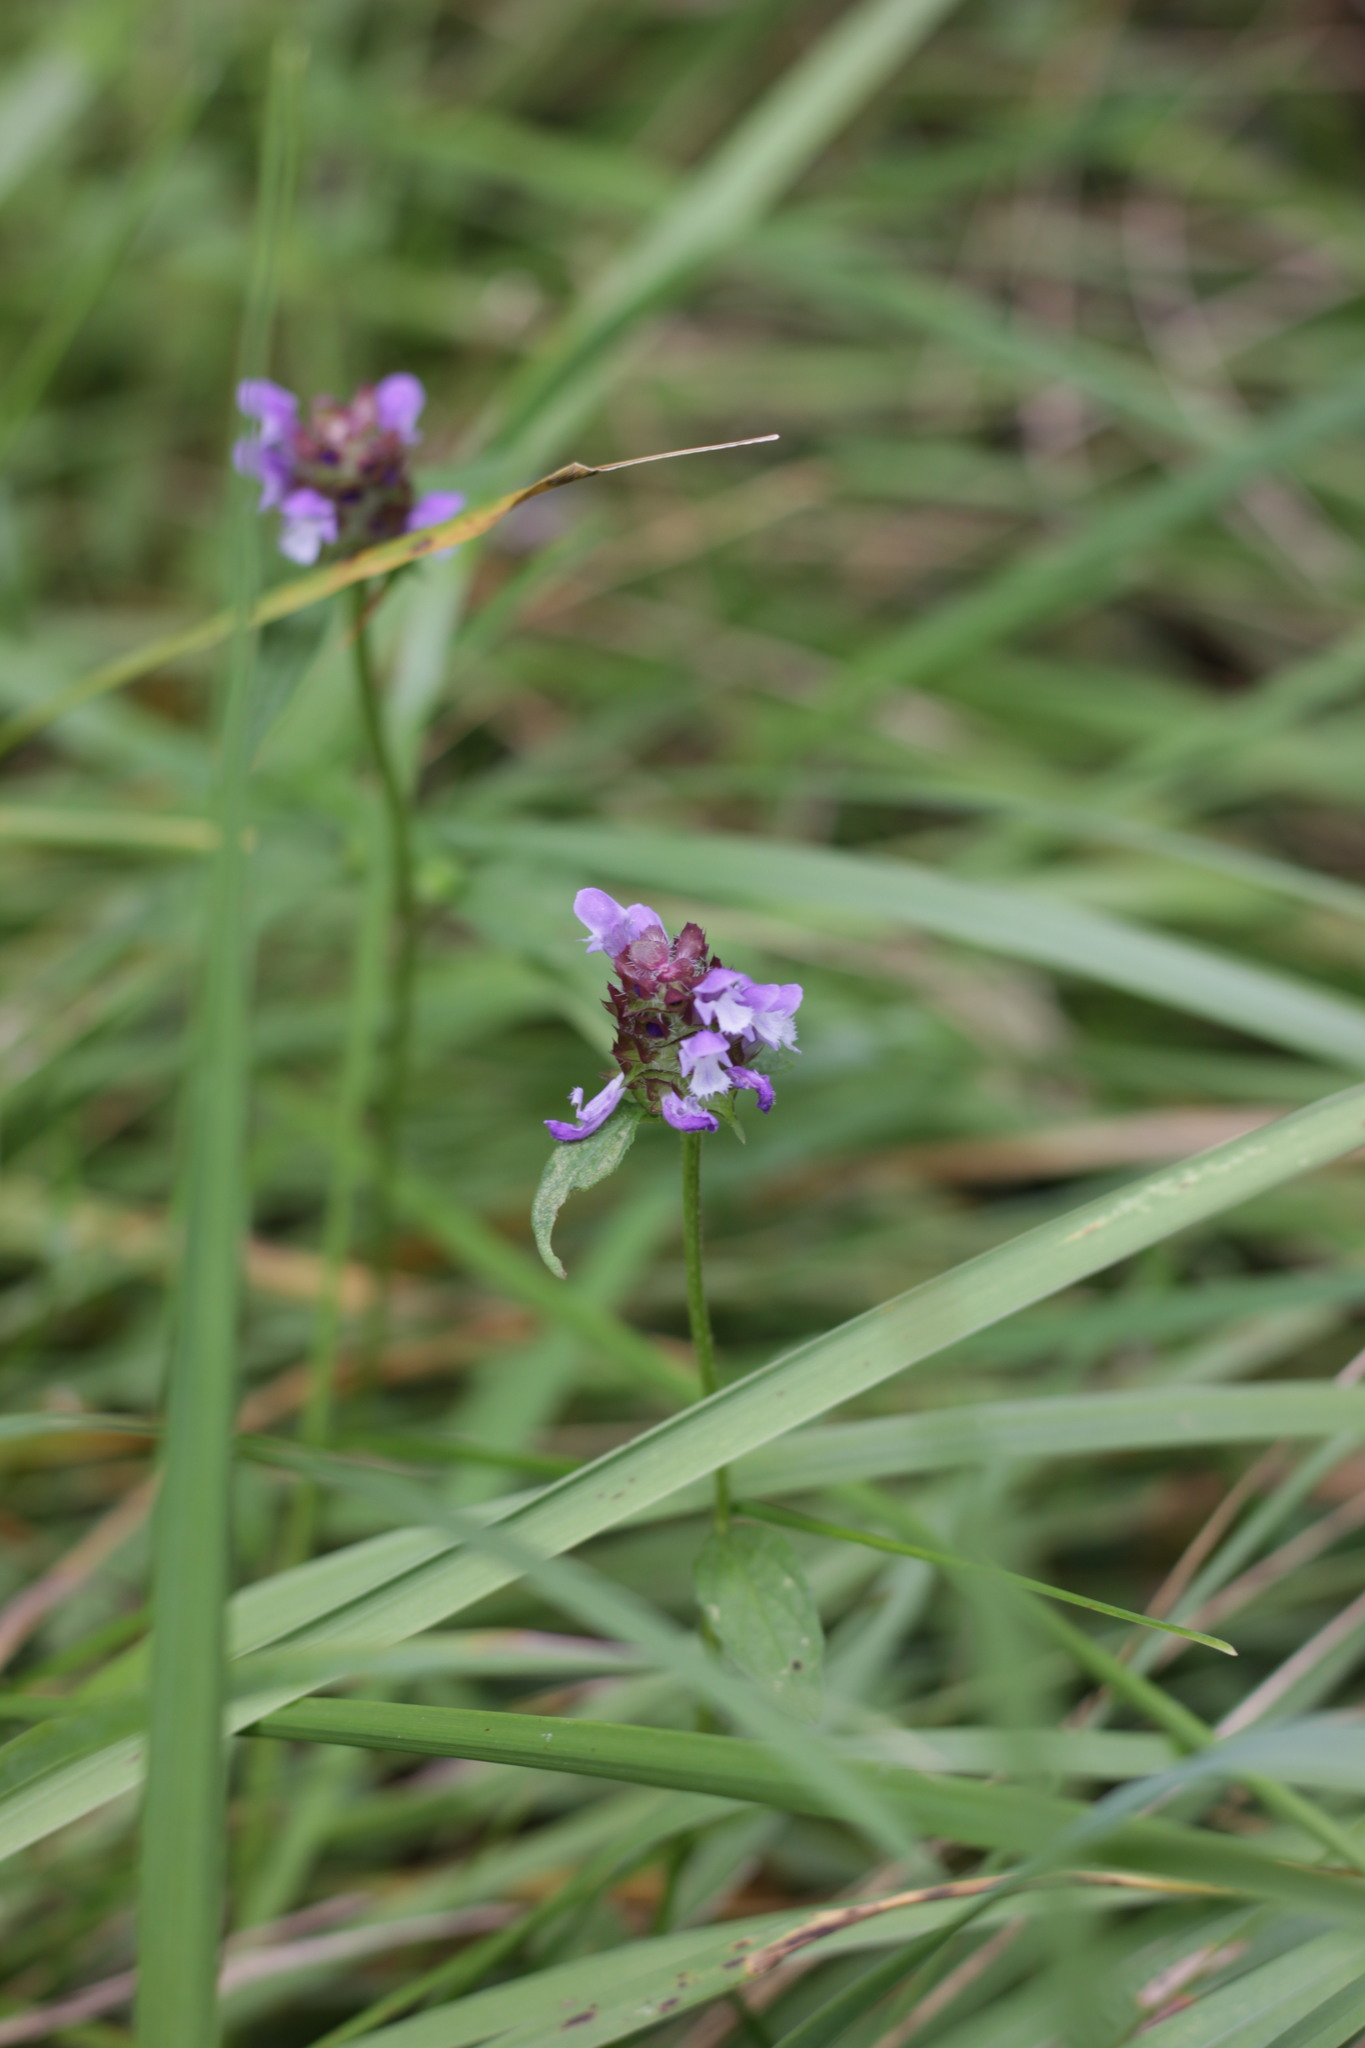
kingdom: Plantae
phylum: Tracheophyta
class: Magnoliopsida
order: Lamiales
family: Lamiaceae
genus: Prunella
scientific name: Prunella vulgaris
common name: Heal-all
